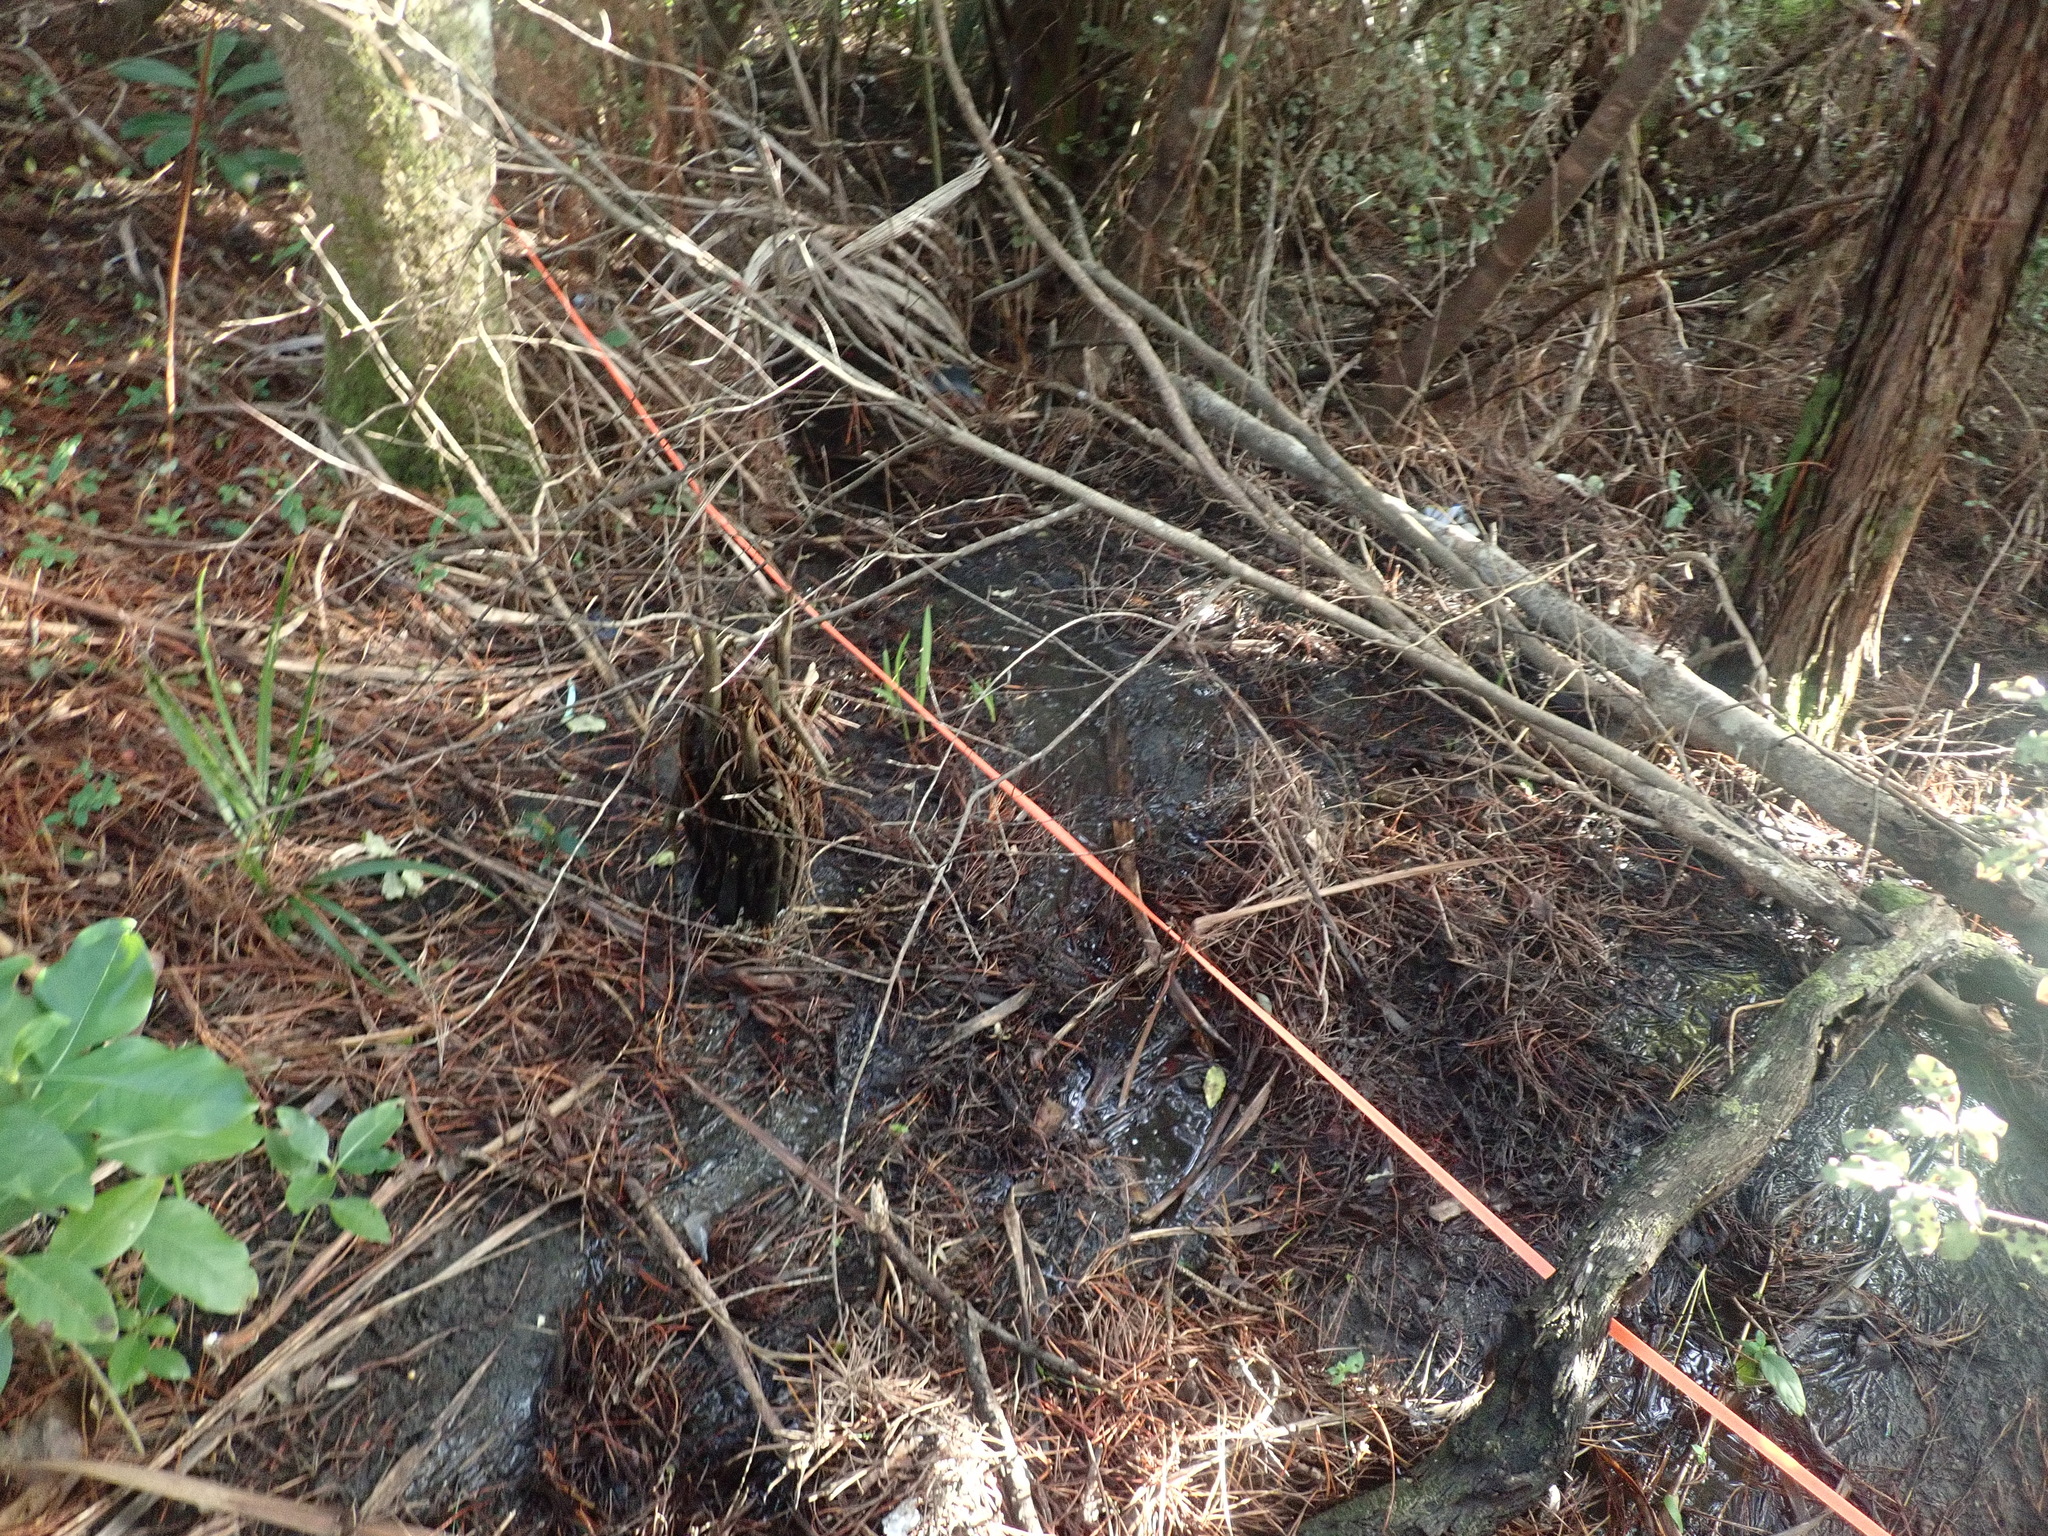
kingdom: Plantae
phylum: Tracheophyta
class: Liliopsida
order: Arecales
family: Arecaceae
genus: Rhopalostylis
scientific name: Rhopalostylis sapida
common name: Feather-duster palm
